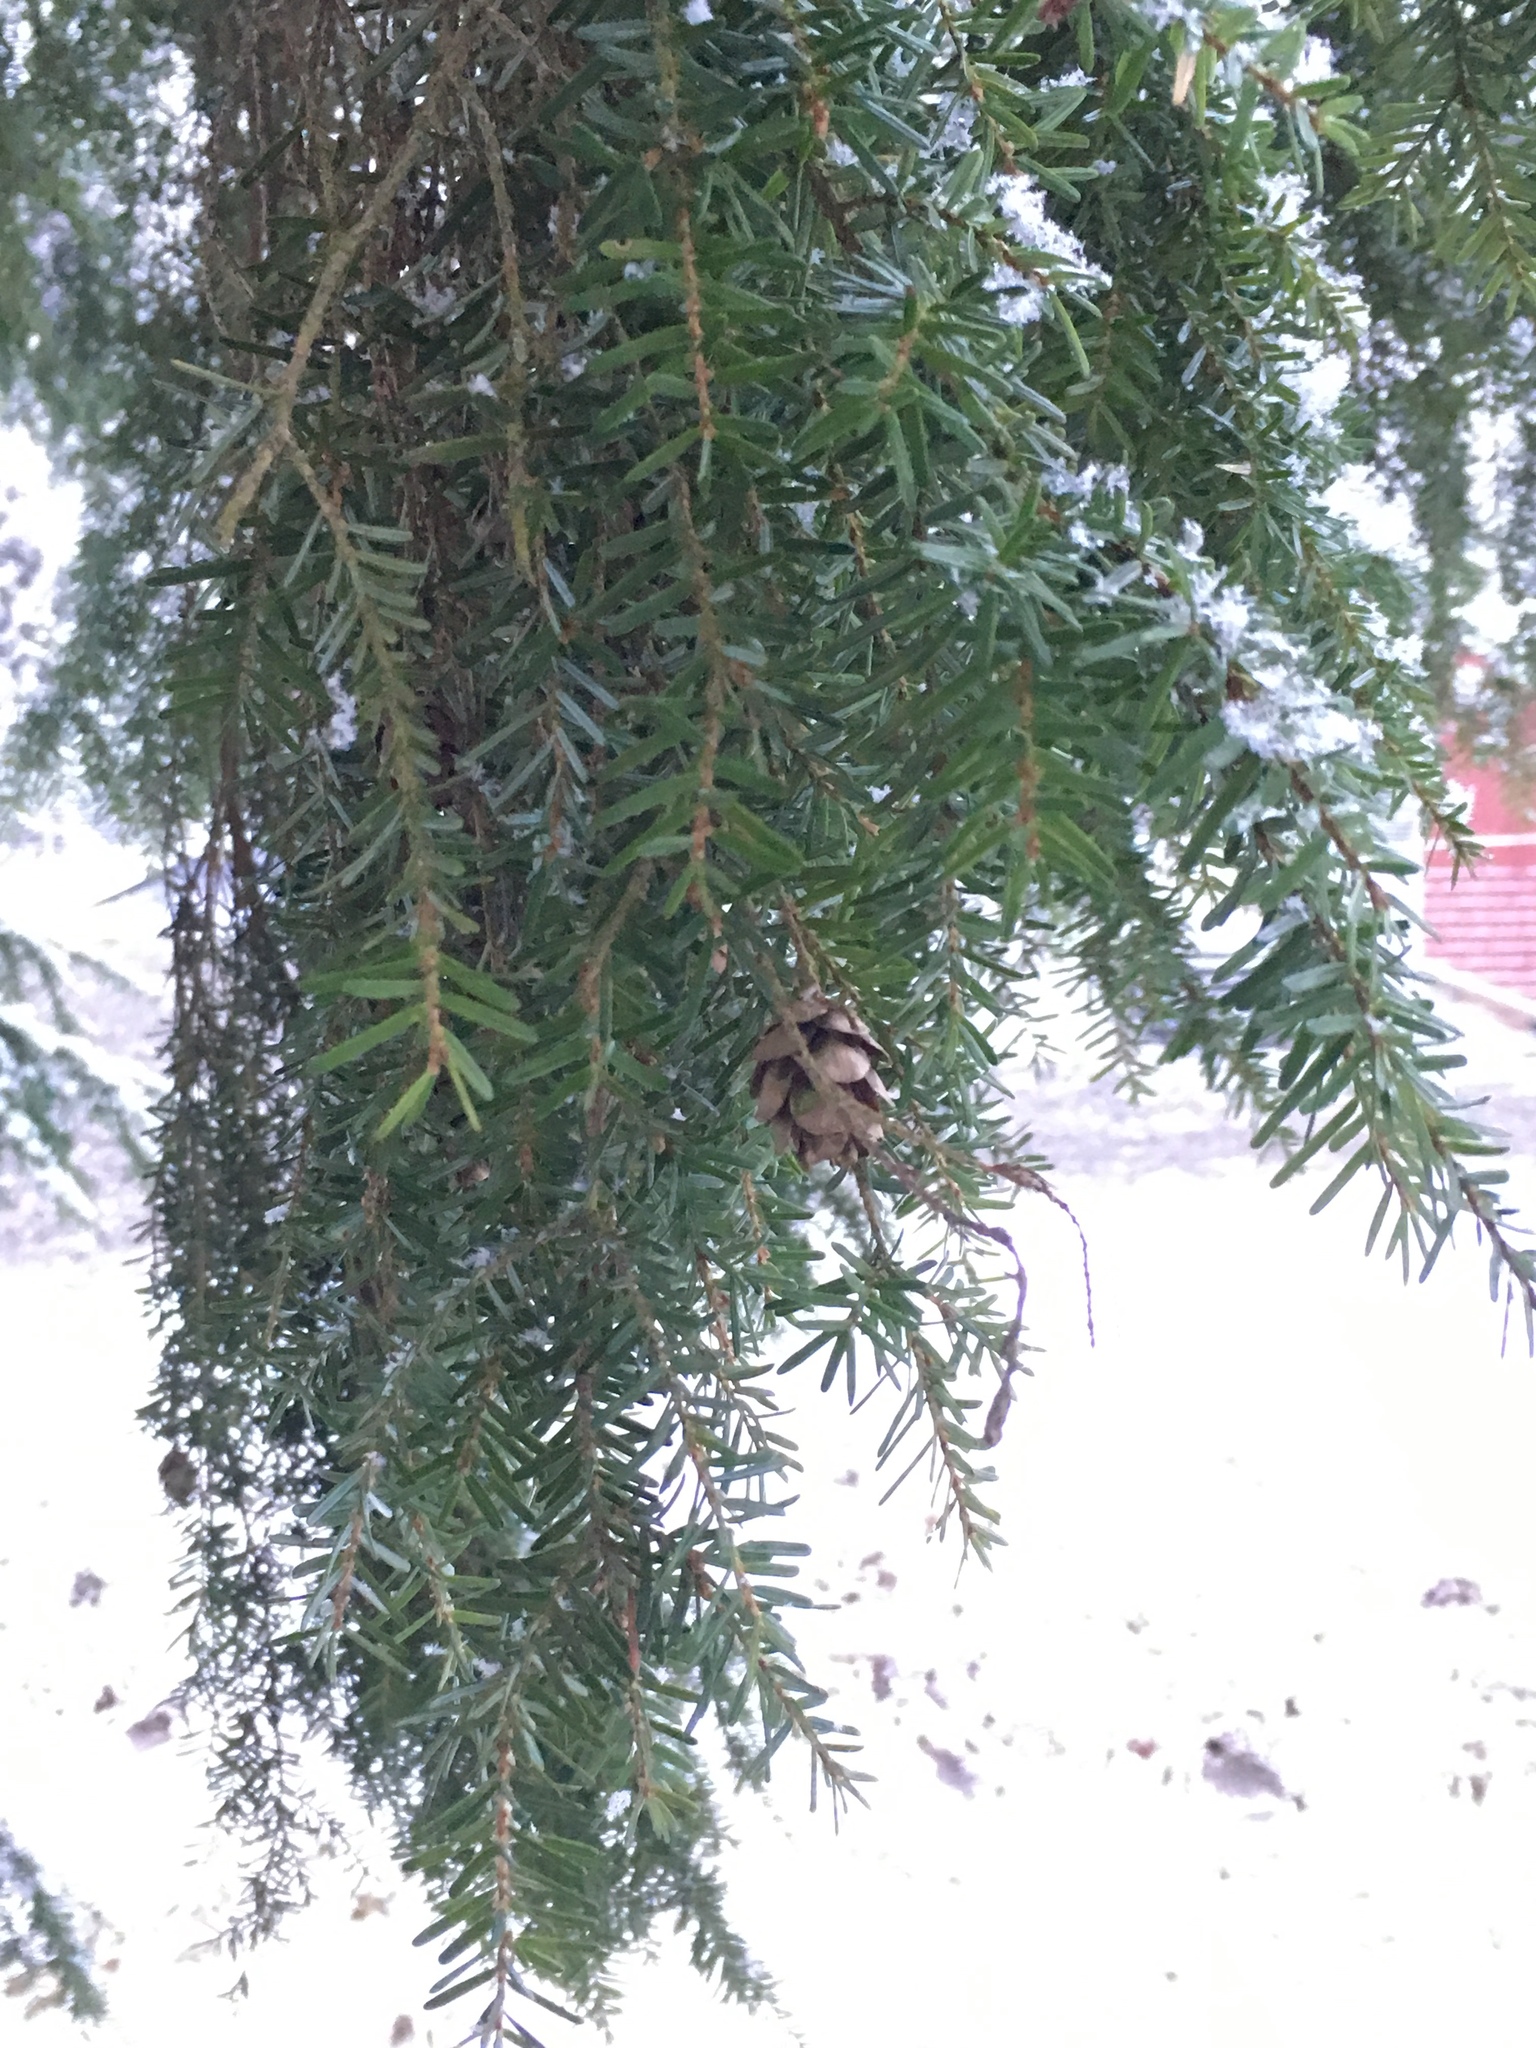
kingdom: Plantae
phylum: Tracheophyta
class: Pinopsida
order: Pinales
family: Pinaceae
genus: Tsuga
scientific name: Tsuga heterophylla
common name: Western hemlock
